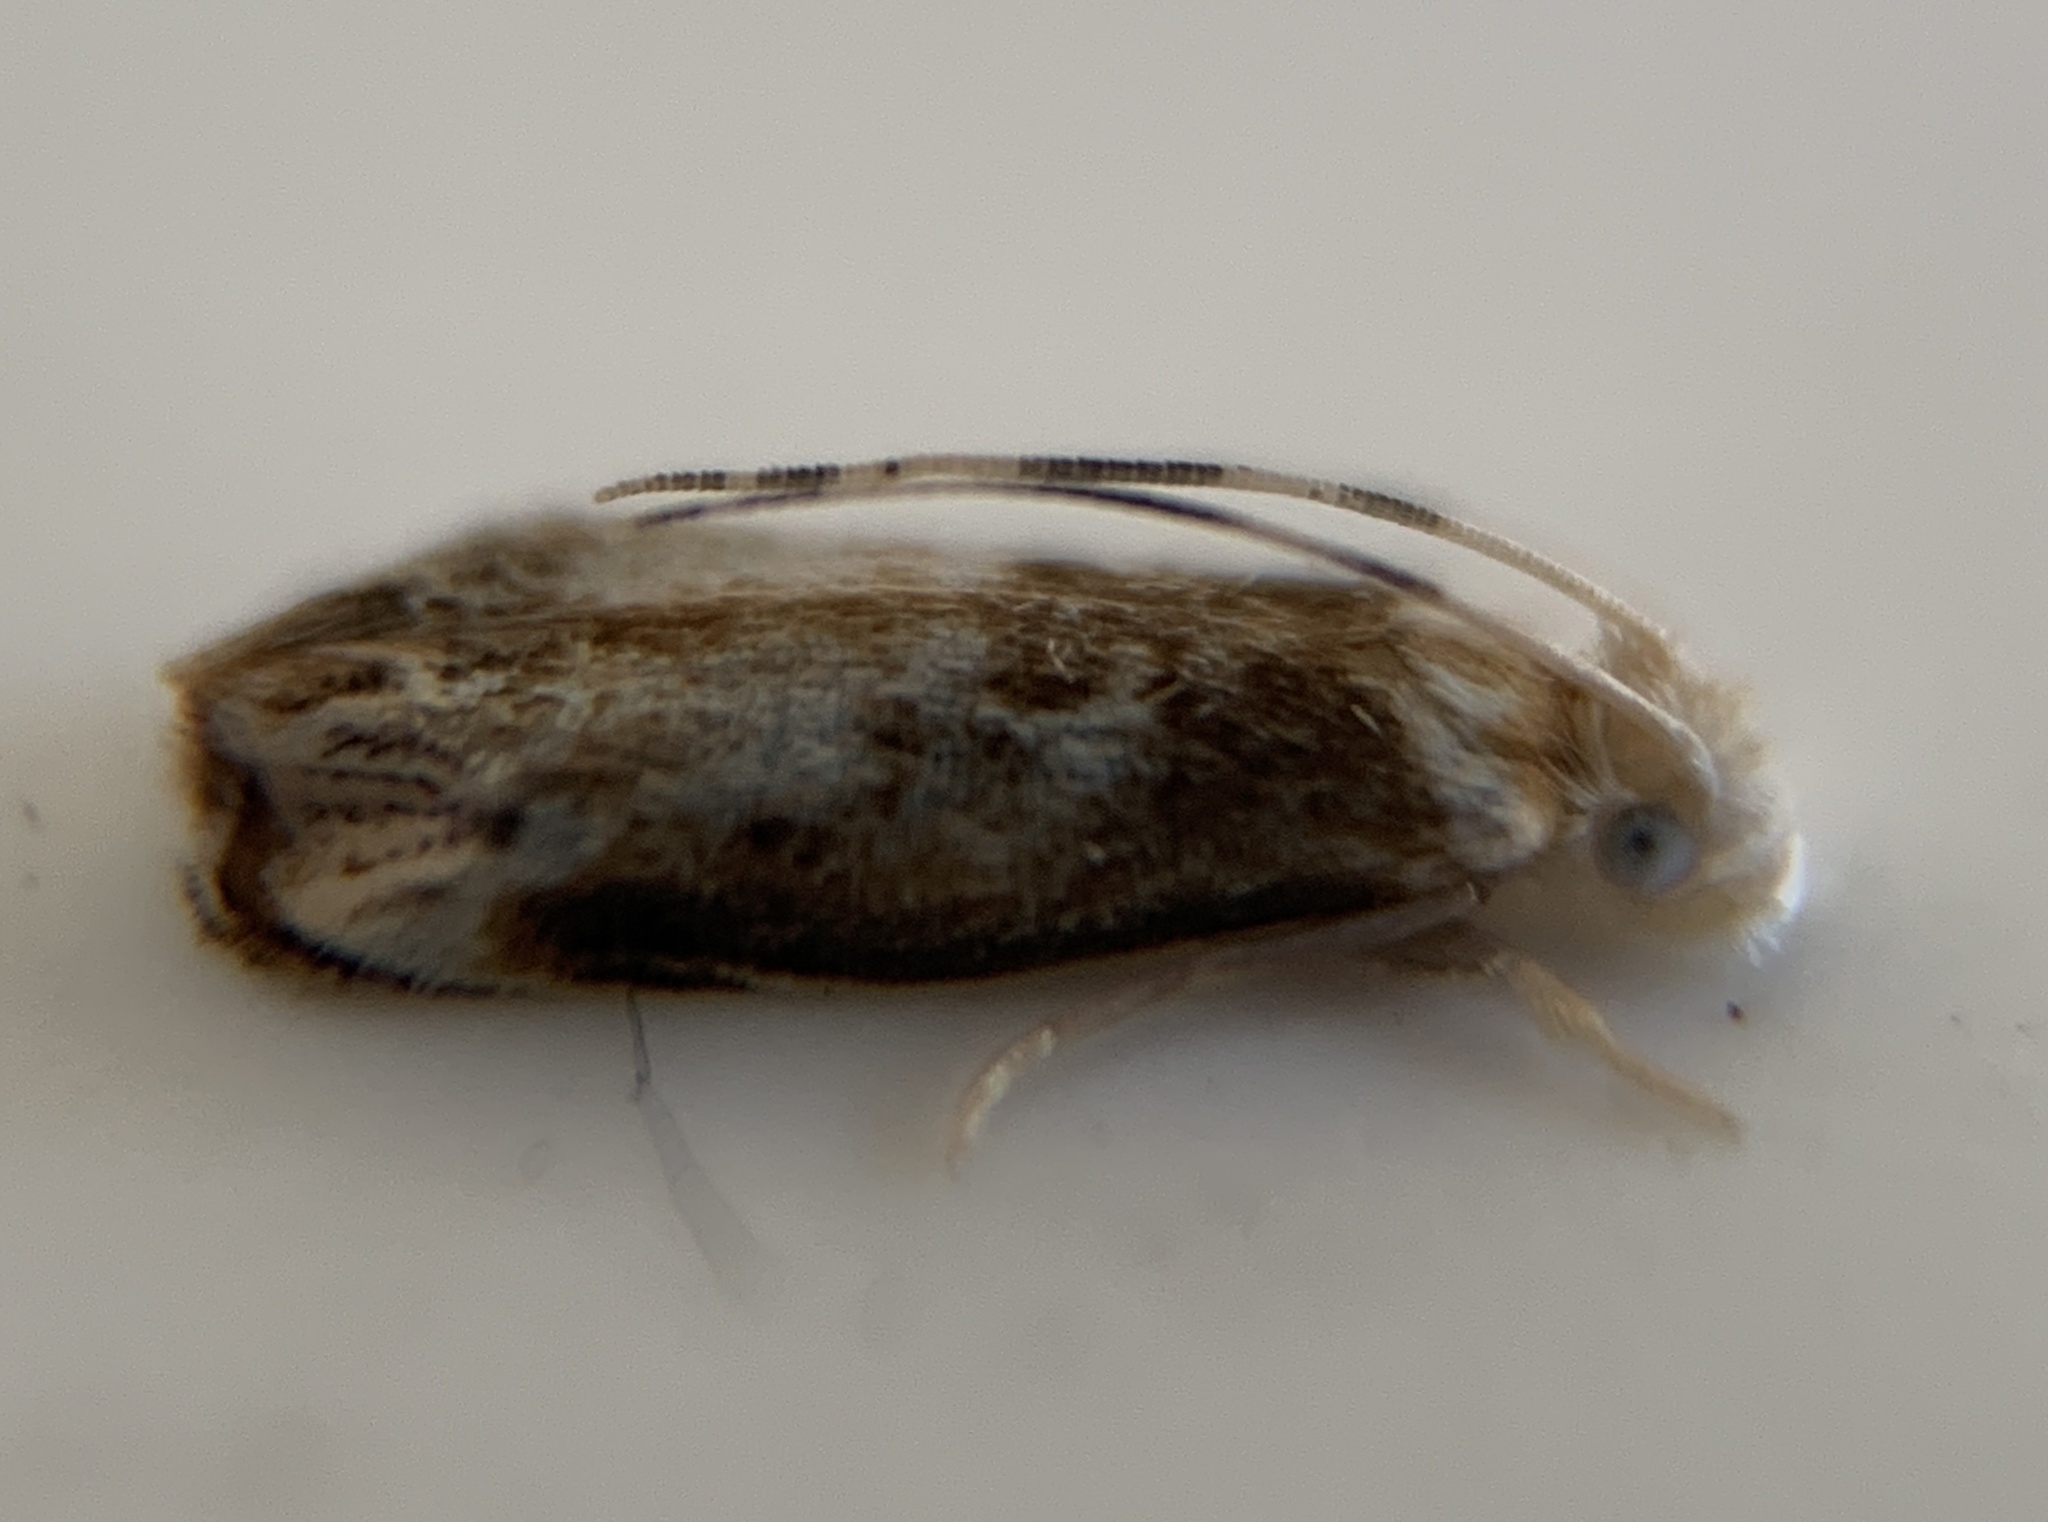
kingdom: Animalia
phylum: Arthropoda
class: Insecta
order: Lepidoptera
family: Dryadaulidae
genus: Dryadaula
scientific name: Dryadaula terpsichorella
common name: Dancing moth
